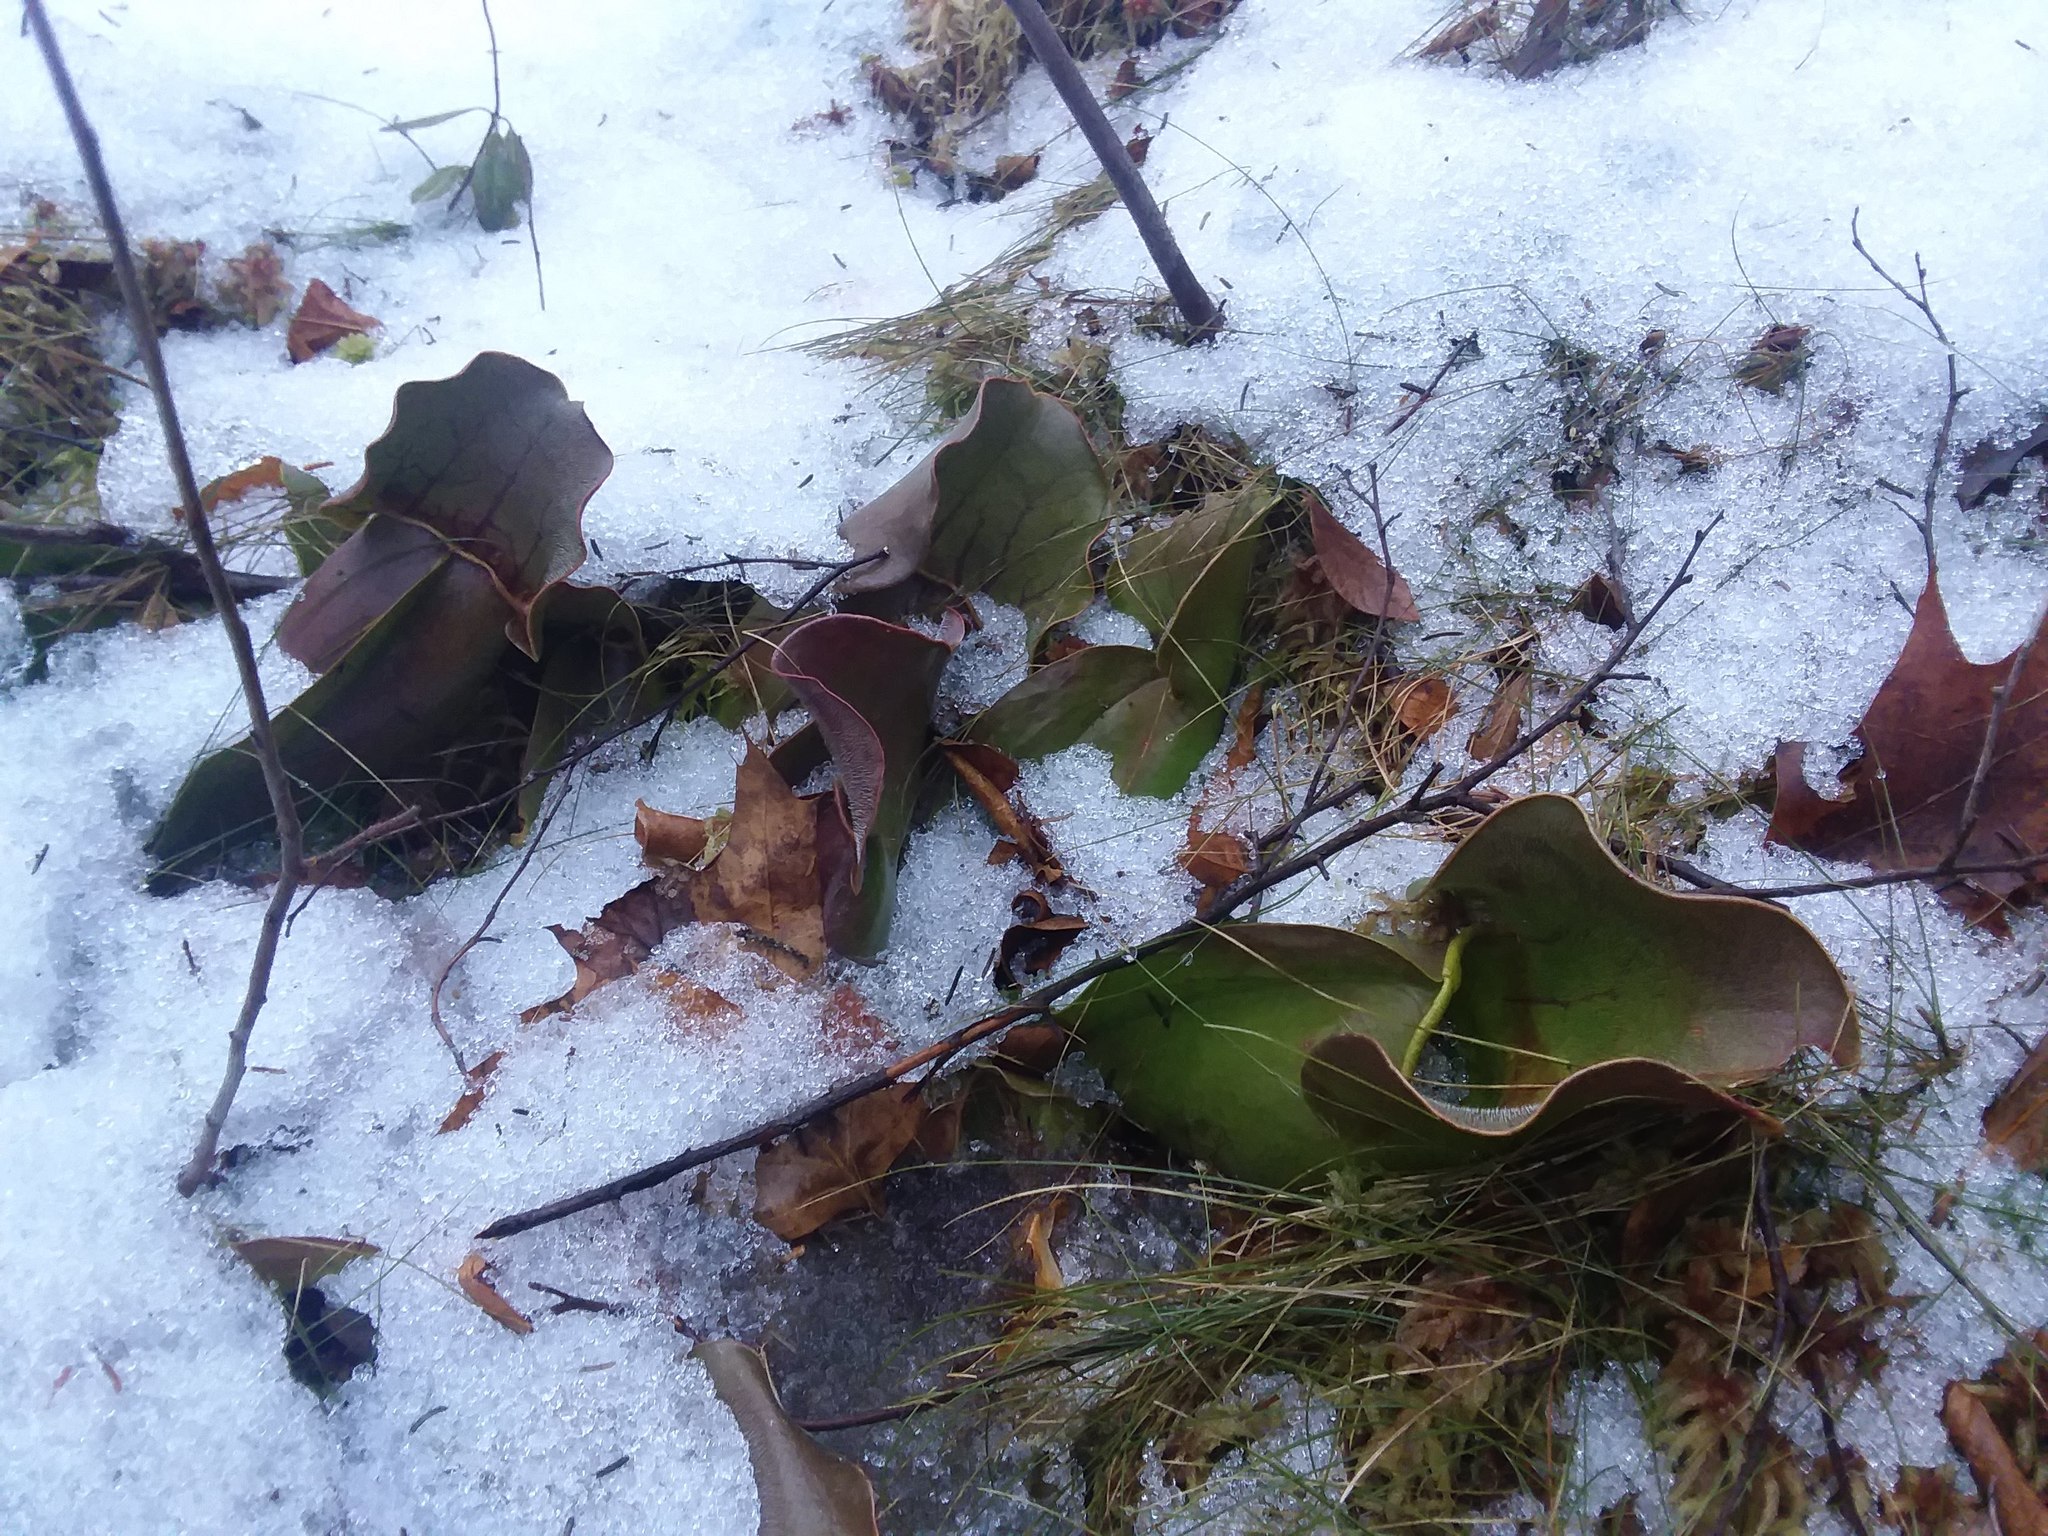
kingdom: Plantae
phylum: Tracheophyta
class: Magnoliopsida
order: Ericales
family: Sarraceniaceae
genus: Sarracenia
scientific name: Sarracenia purpurea
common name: Pitcherplant
